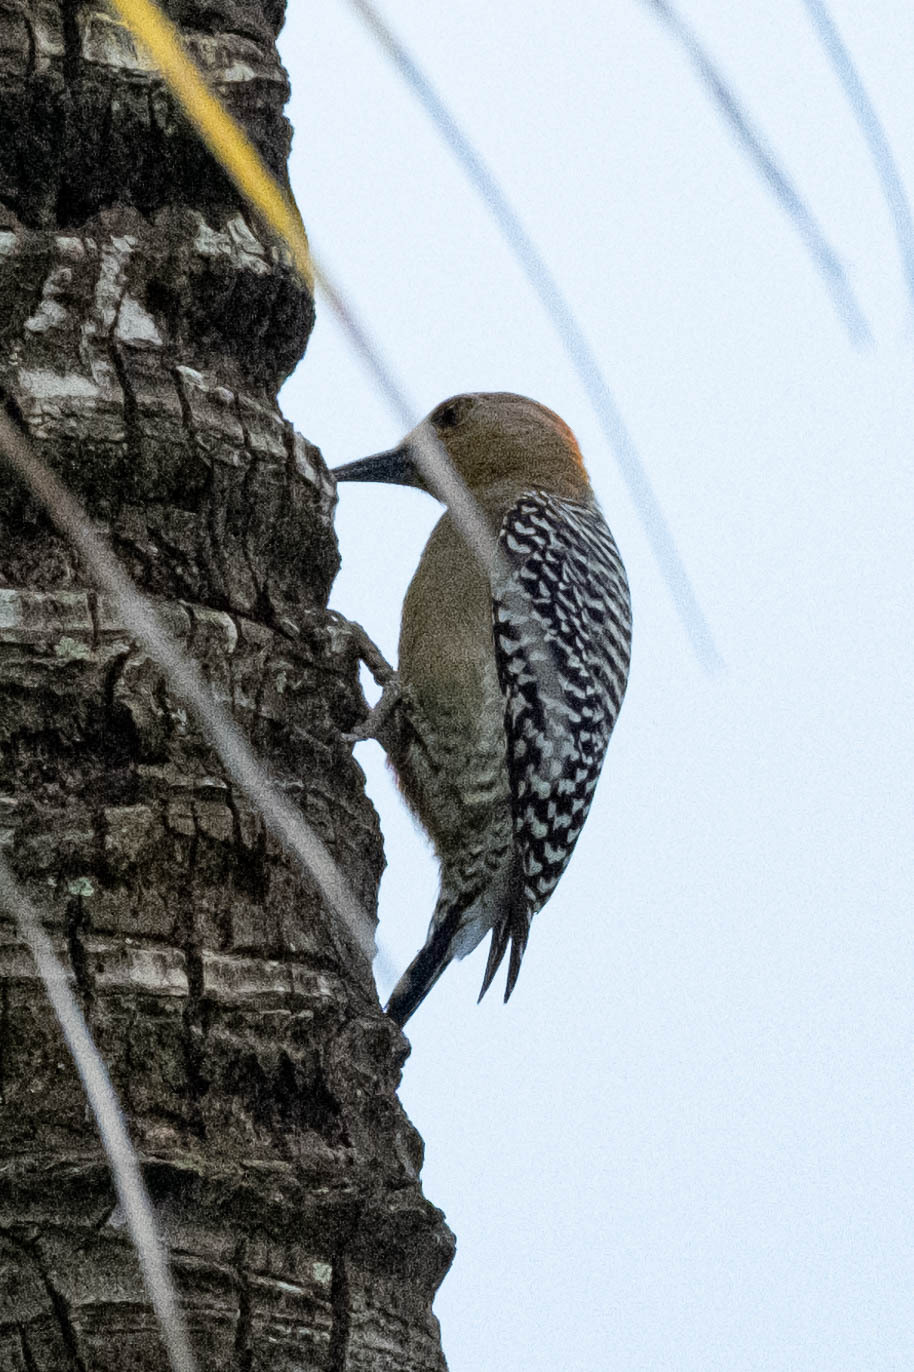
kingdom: Animalia
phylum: Chordata
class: Aves
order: Piciformes
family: Picidae
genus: Melanerpes
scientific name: Melanerpes rubricapillus
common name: Red-crowned woodpecker
